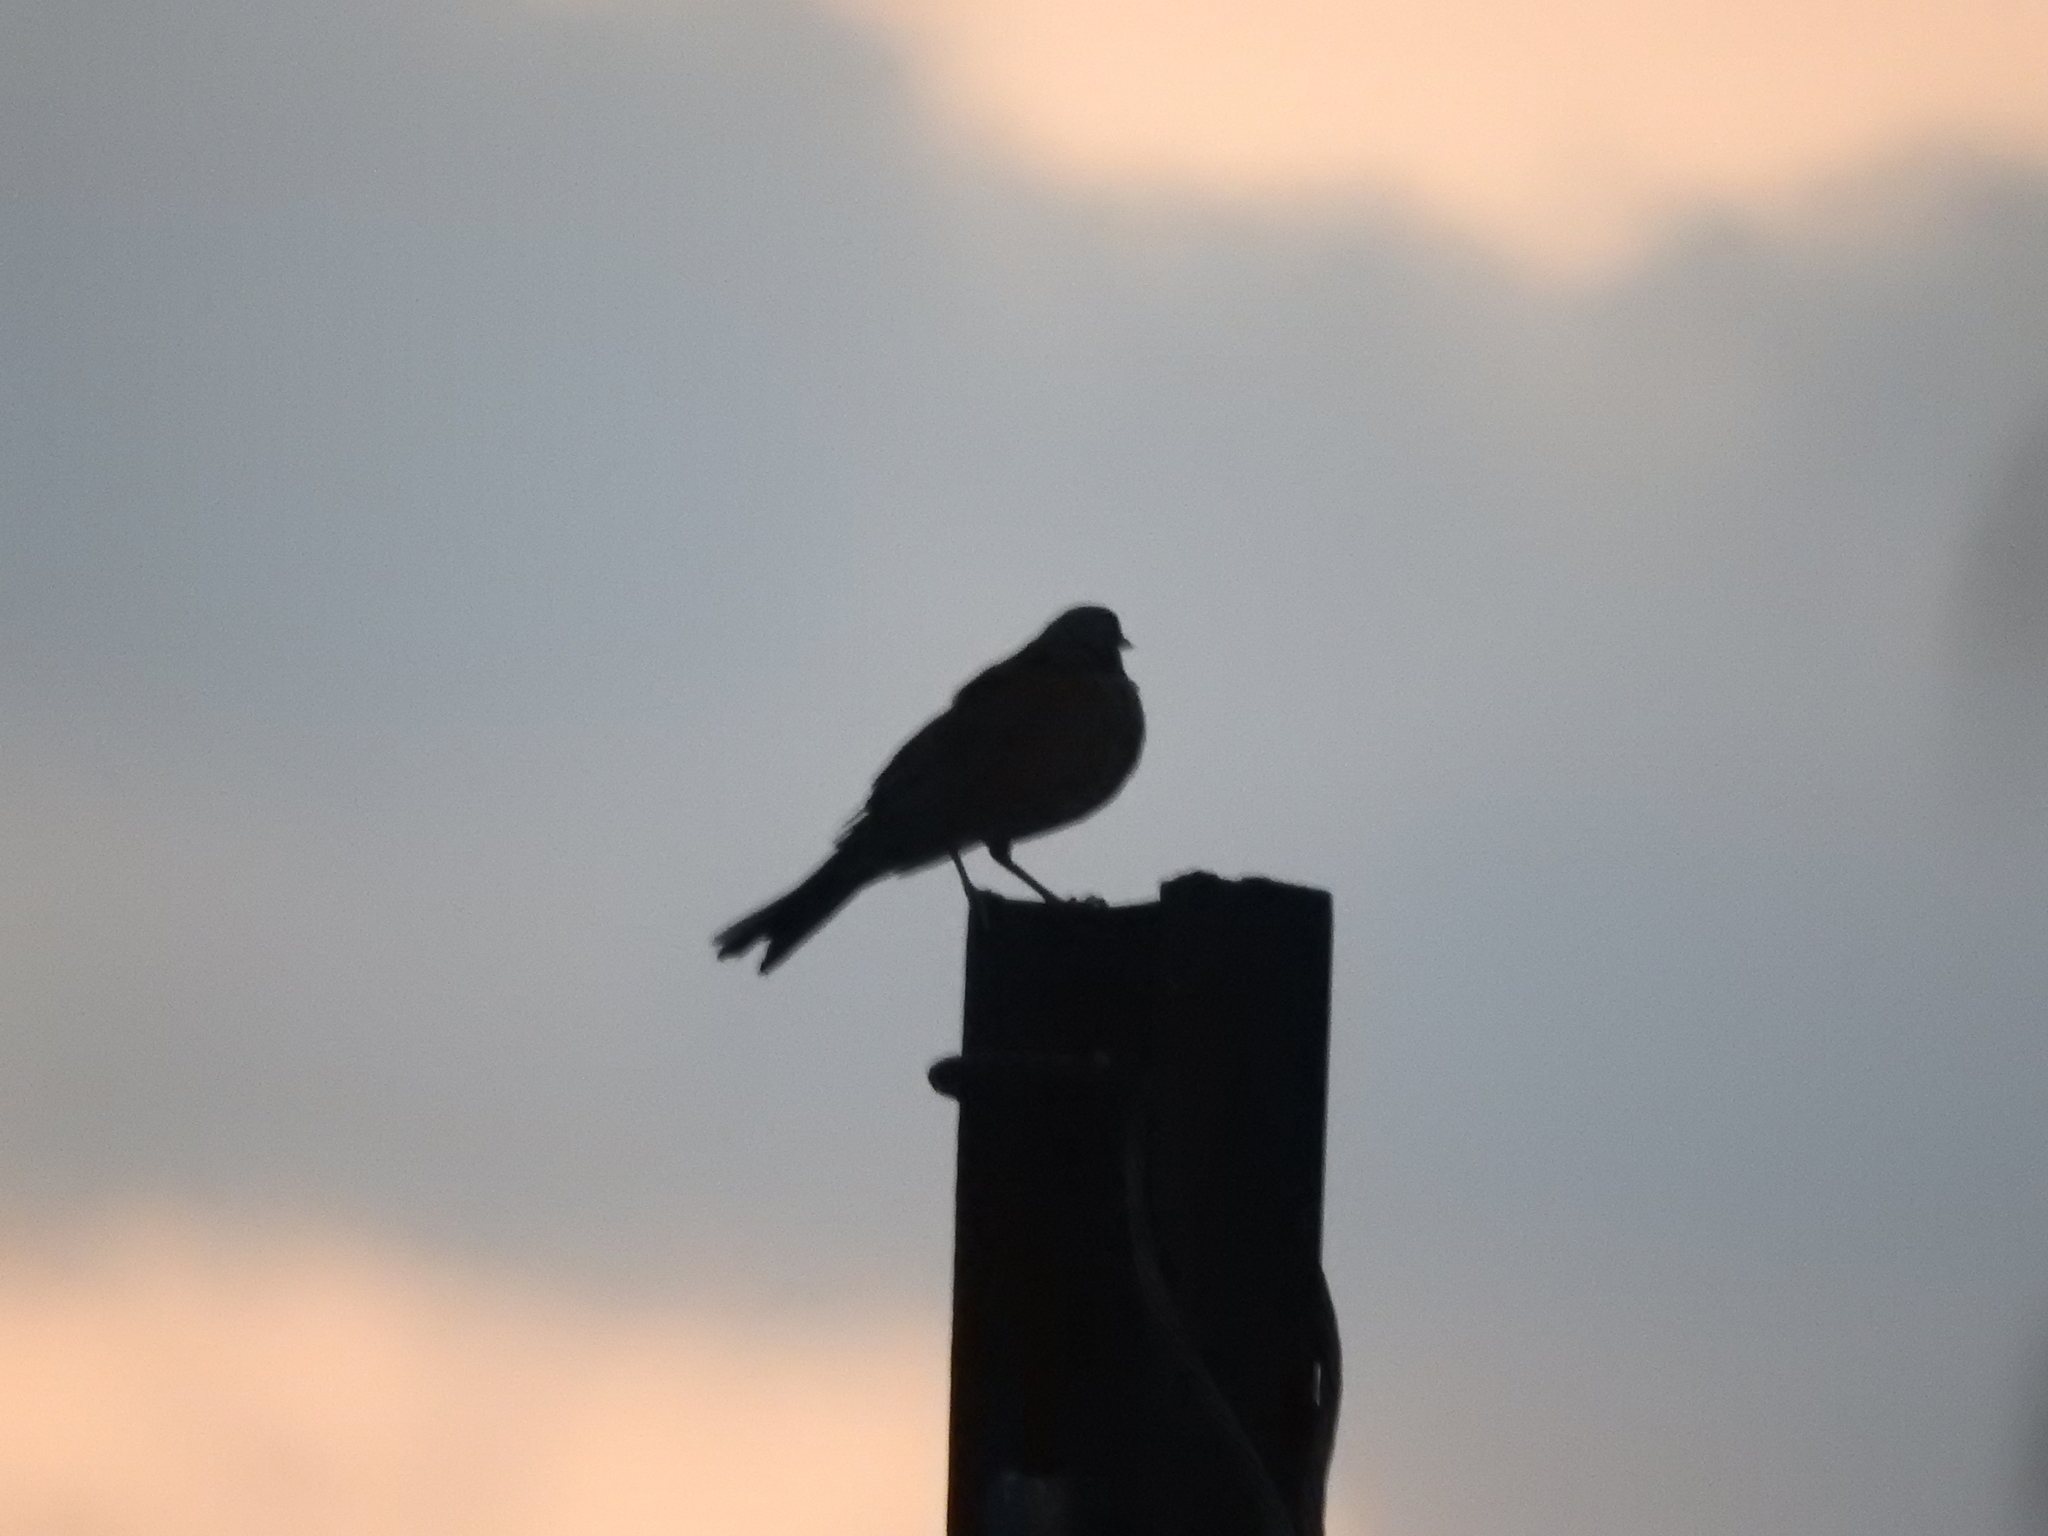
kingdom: Animalia
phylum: Chordata
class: Aves
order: Passeriformes
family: Turdidae
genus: Turdus
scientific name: Turdus rufopalliatus
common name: Rufous-backed robin
